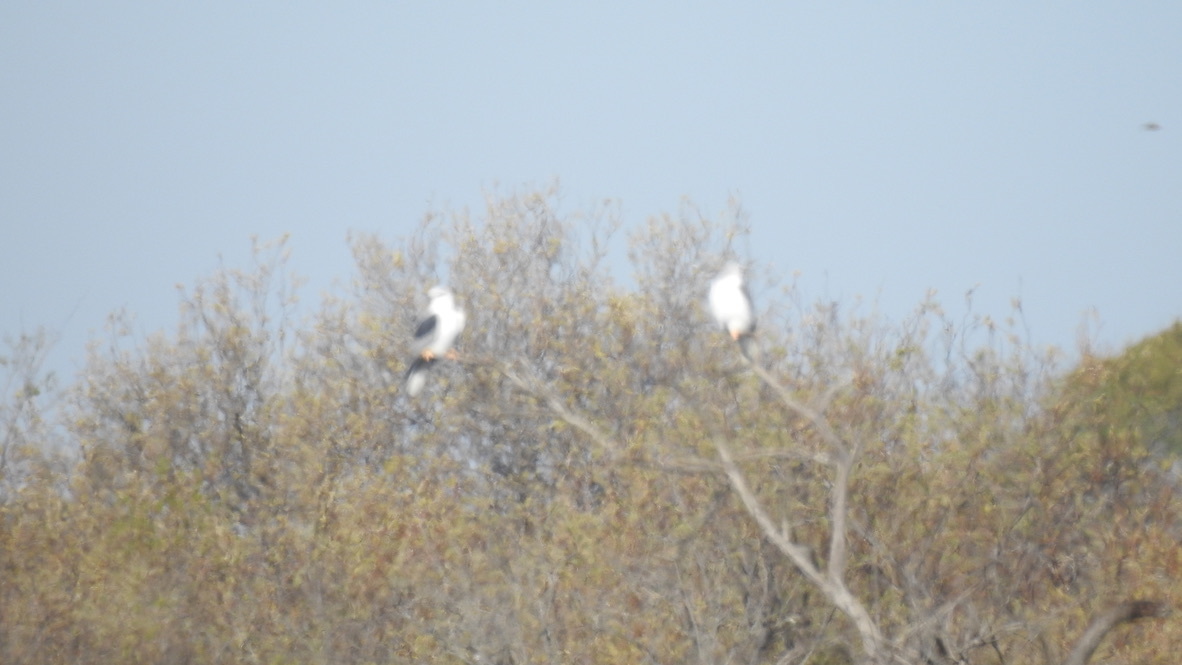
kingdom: Animalia
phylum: Chordata
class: Aves
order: Accipitriformes
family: Accipitridae
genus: Elanus
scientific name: Elanus leucurus
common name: White-tailed kite
